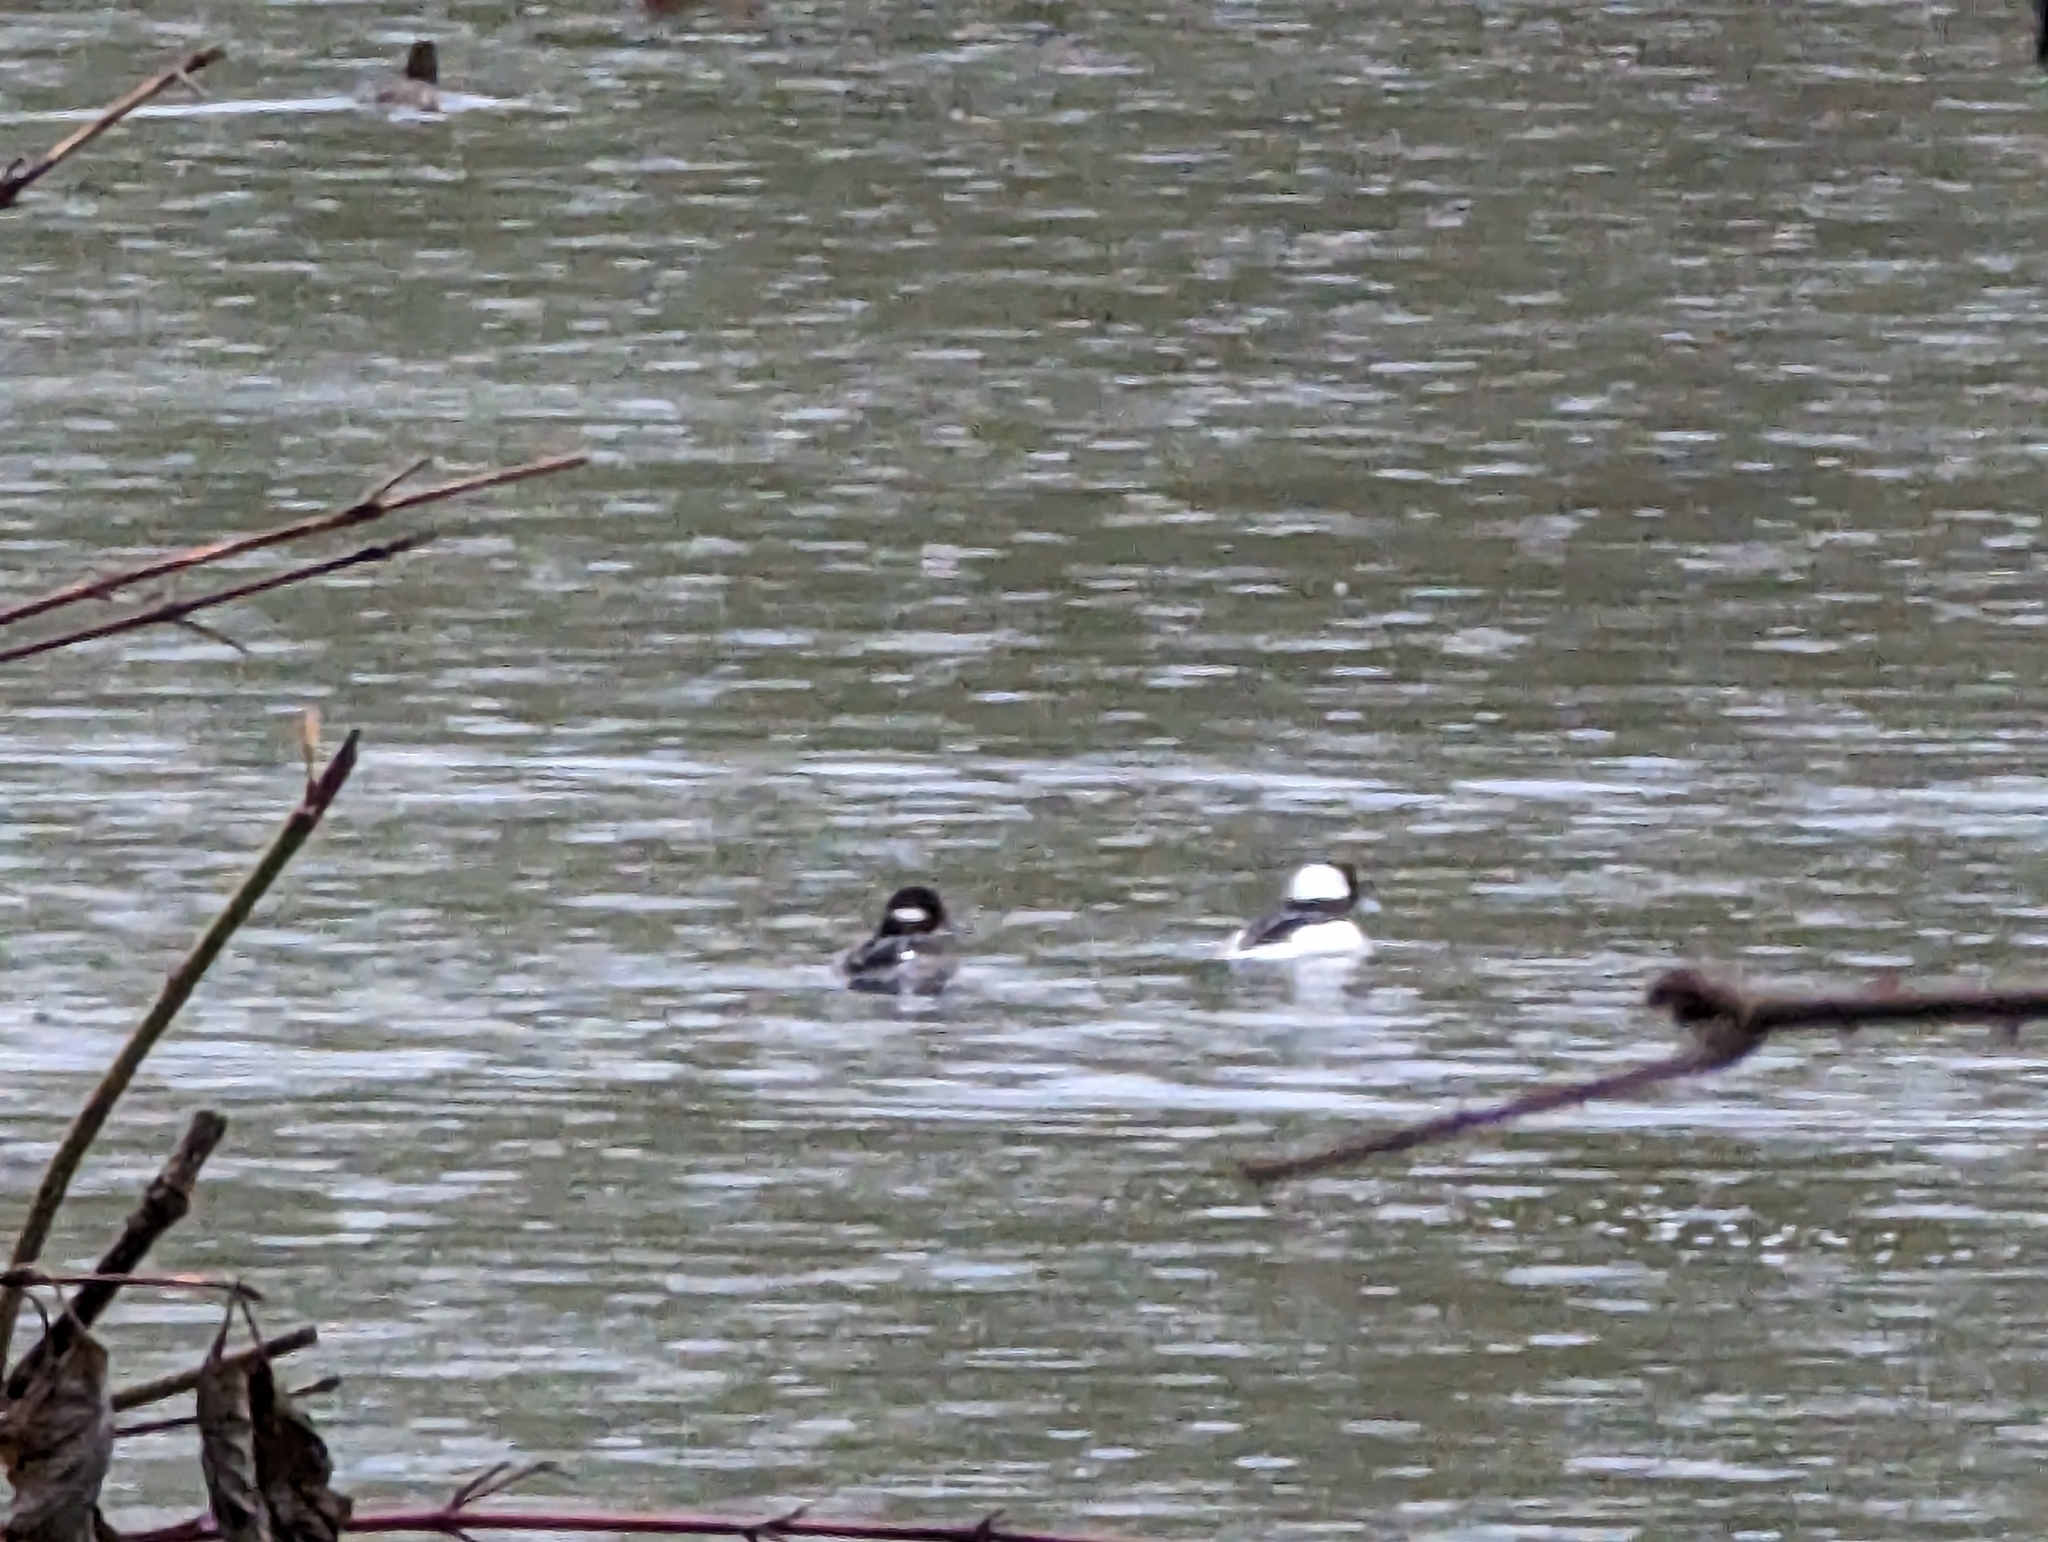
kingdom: Animalia
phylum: Chordata
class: Aves
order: Anseriformes
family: Anatidae
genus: Bucephala
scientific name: Bucephala albeola
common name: Bufflehead
